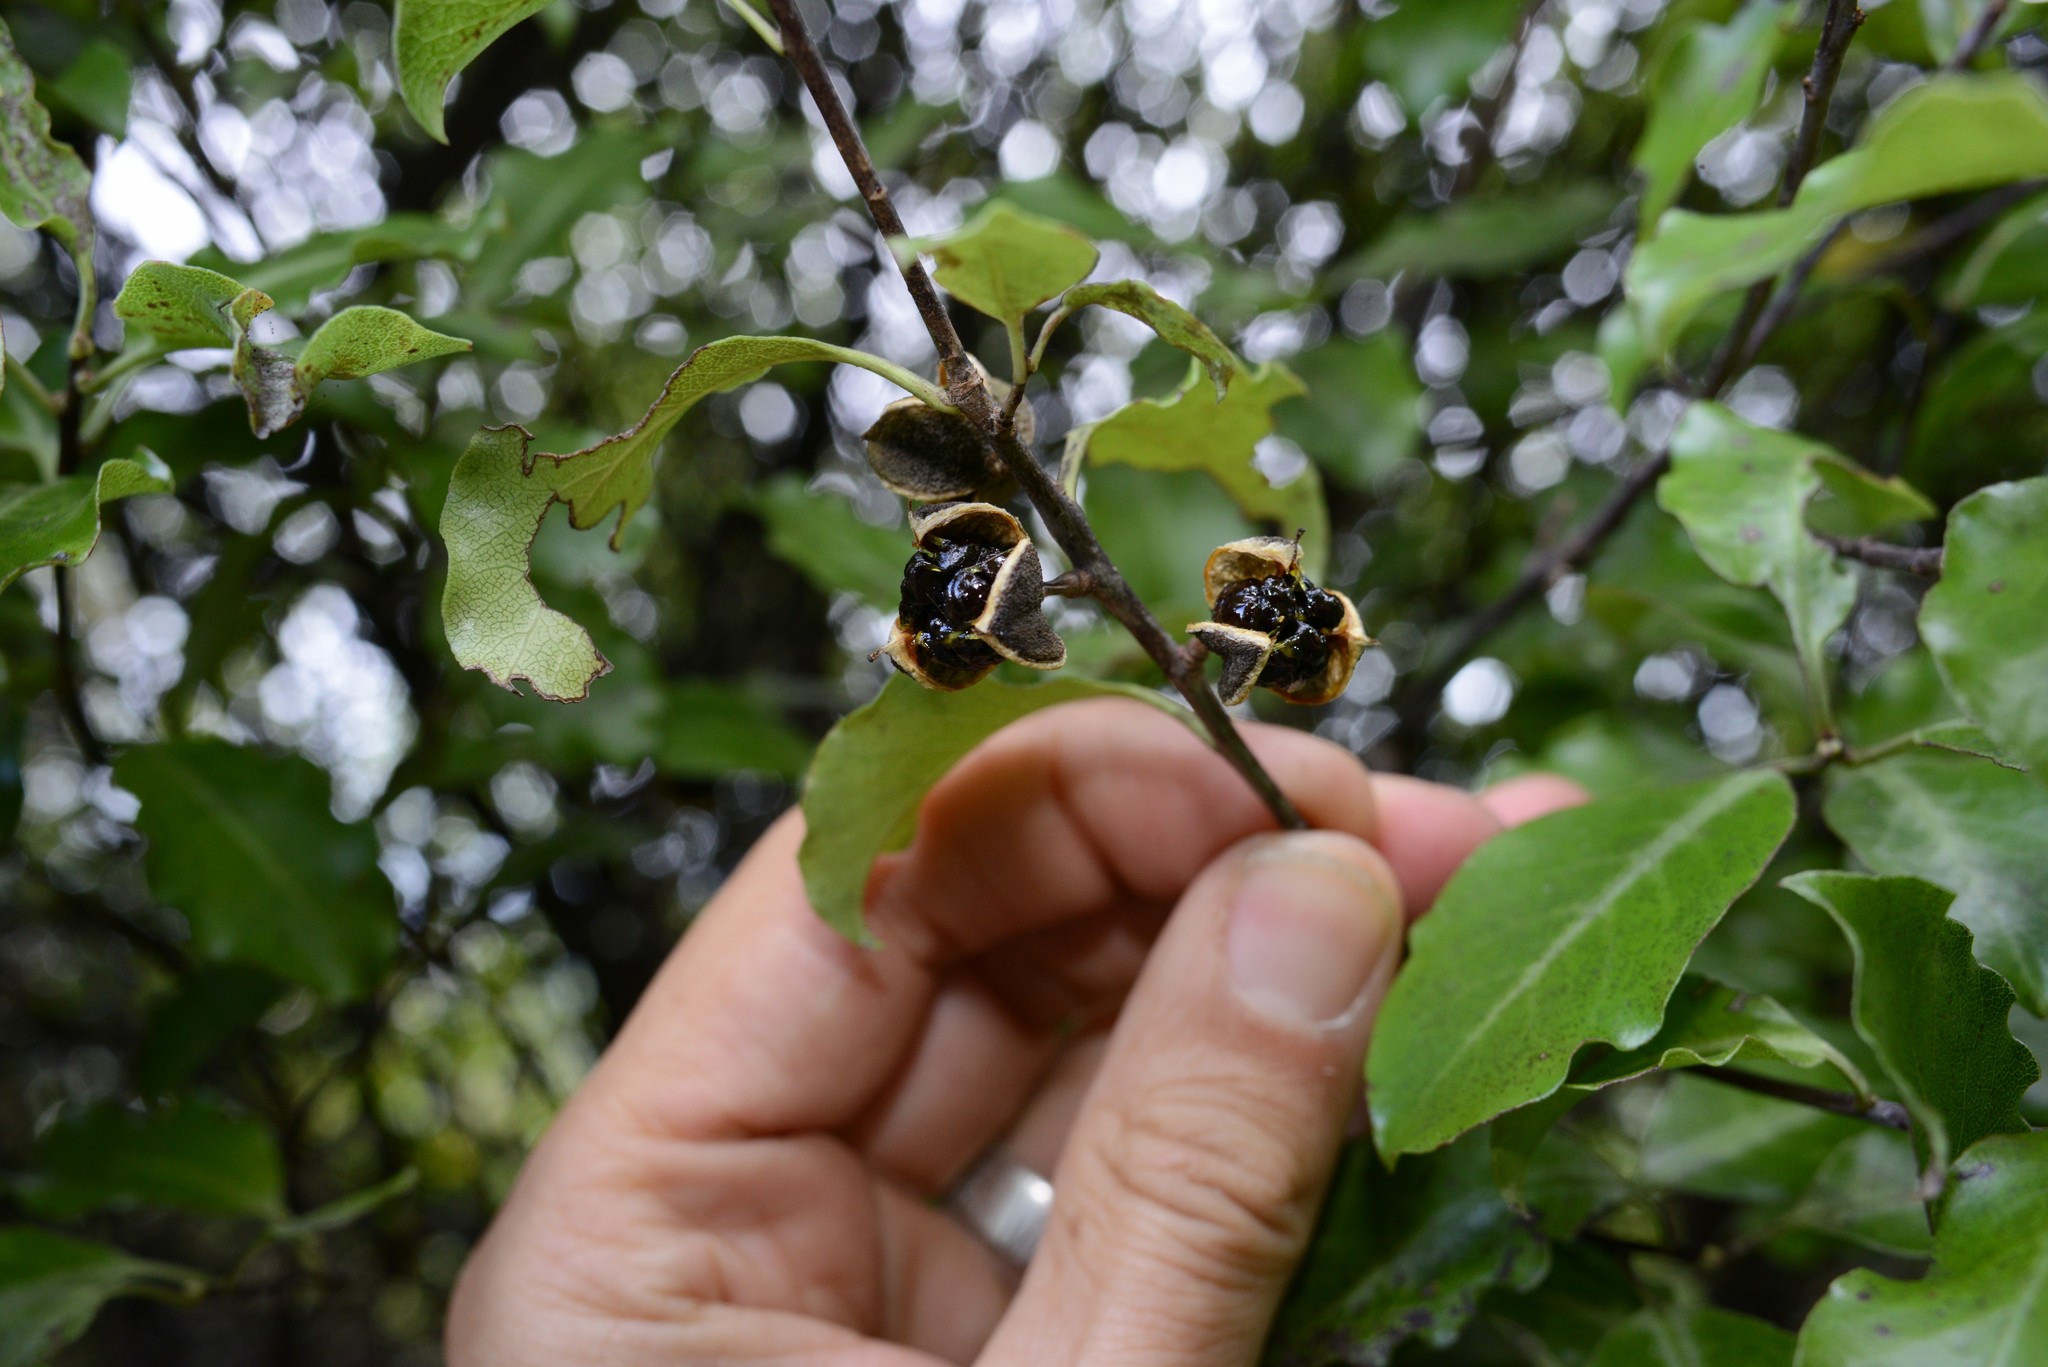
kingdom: Plantae
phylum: Tracheophyta
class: Magnoliopsida
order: Apiales
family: Pittosporaceae
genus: Pittosporum
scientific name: Pittosporum tenuifolium
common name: Kohuhu
